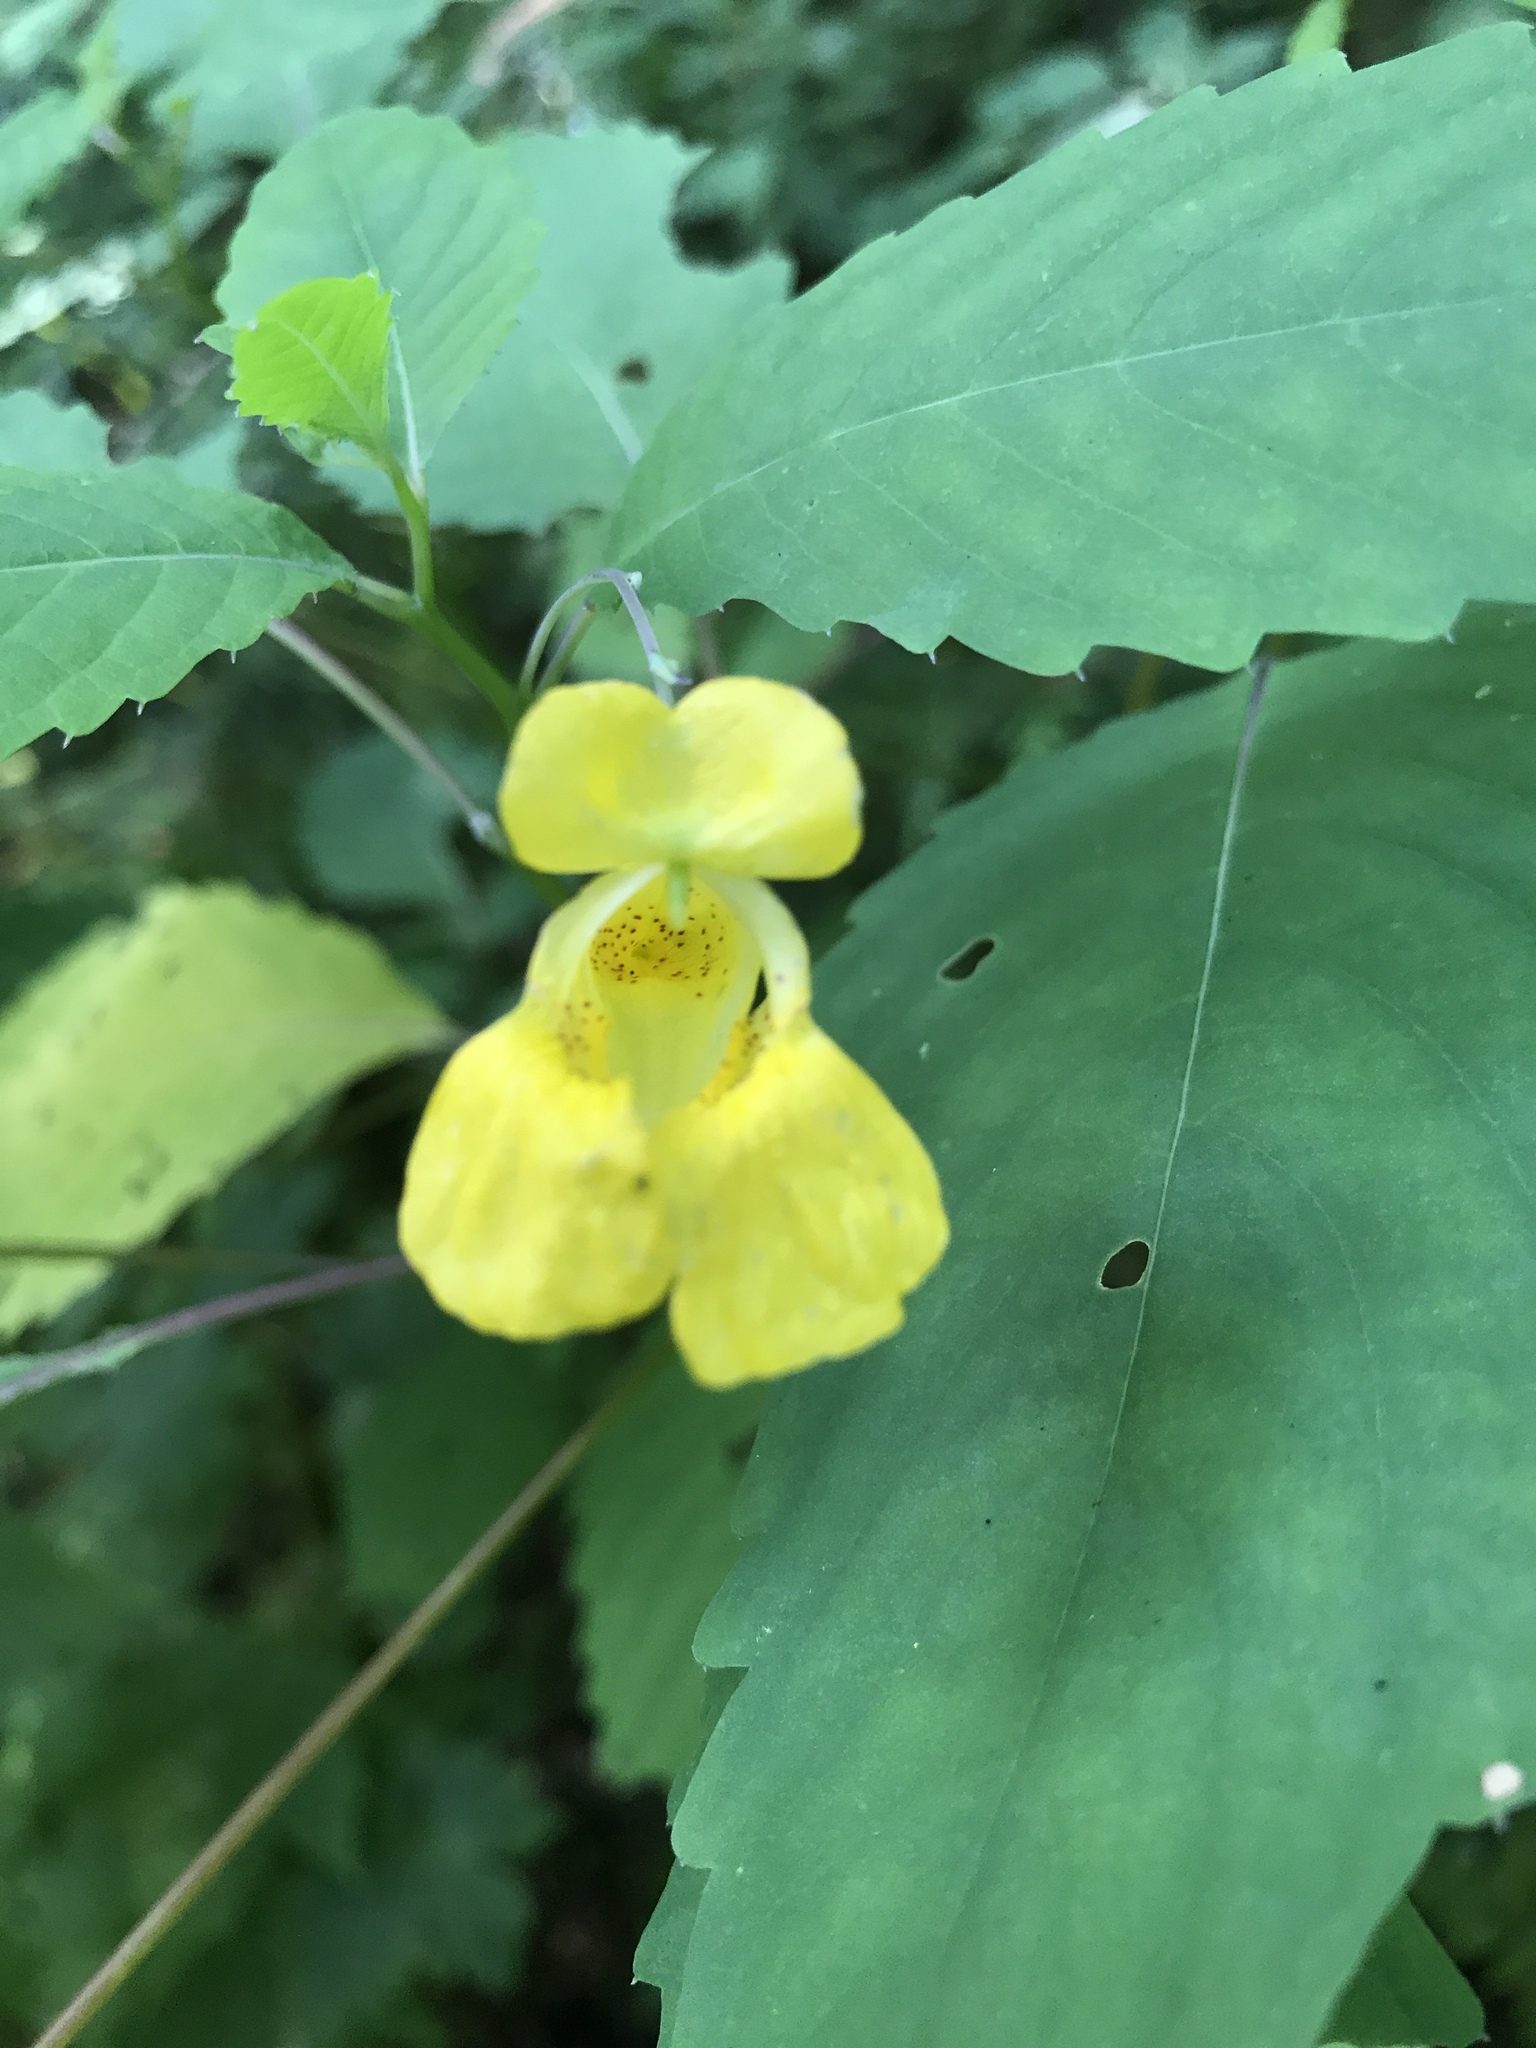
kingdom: Plantae
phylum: Tracheophyta
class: Magnoliopsida
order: Ericales
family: Balsaminaceae
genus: Impatiens
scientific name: Impatiens pallida
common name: Pale snapweed
